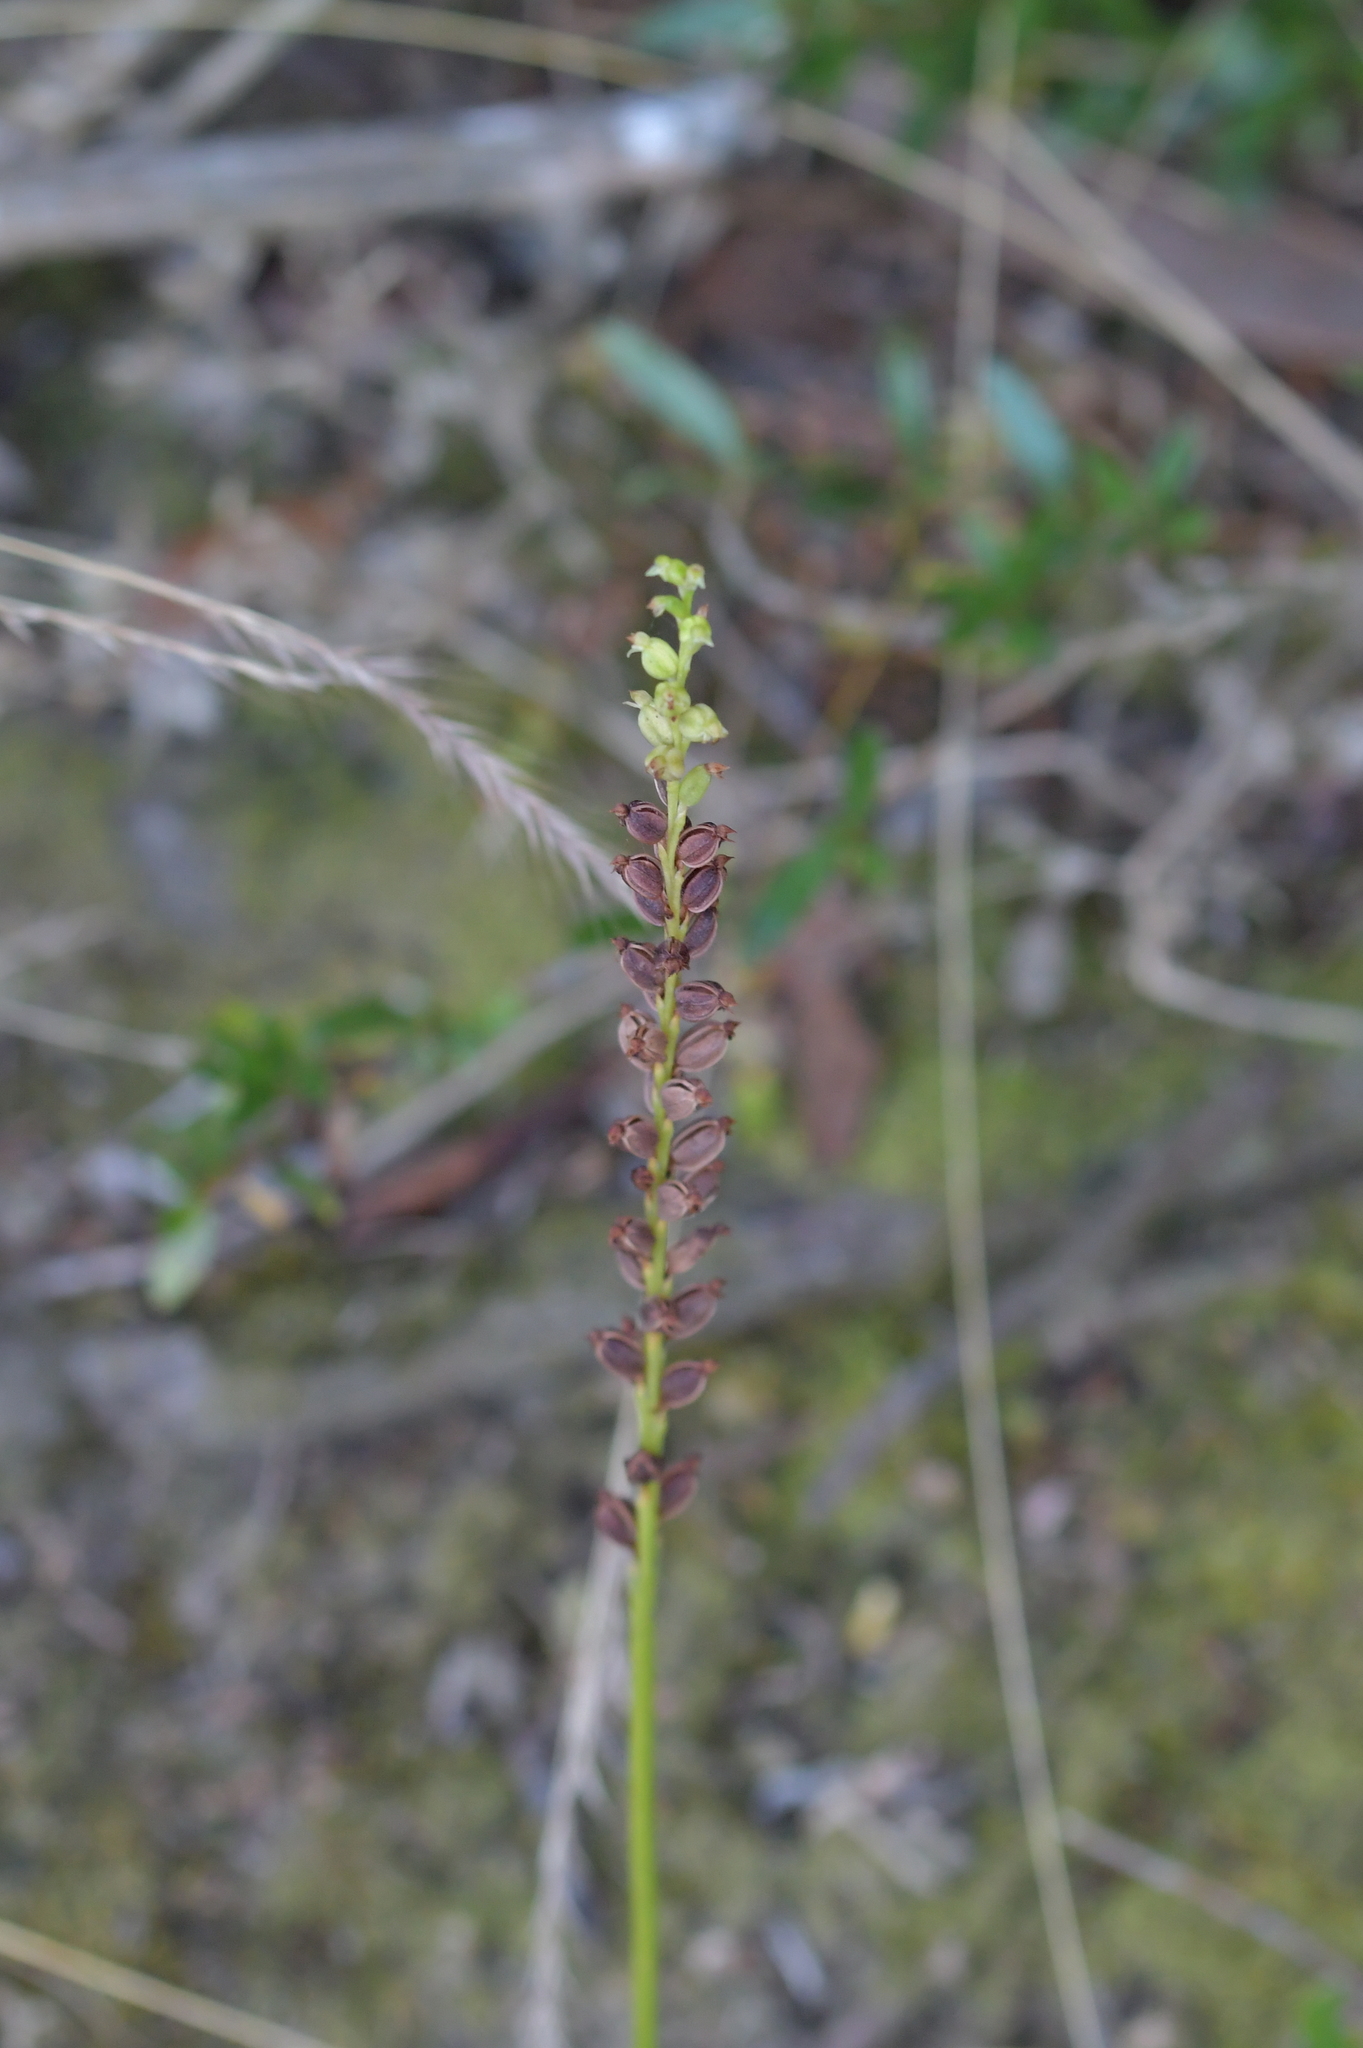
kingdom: Plantae
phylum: Tracheophyta
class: Liliopsida
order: Asparagales
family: Orchidaceae
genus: Microtis
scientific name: Microtis unifolia
